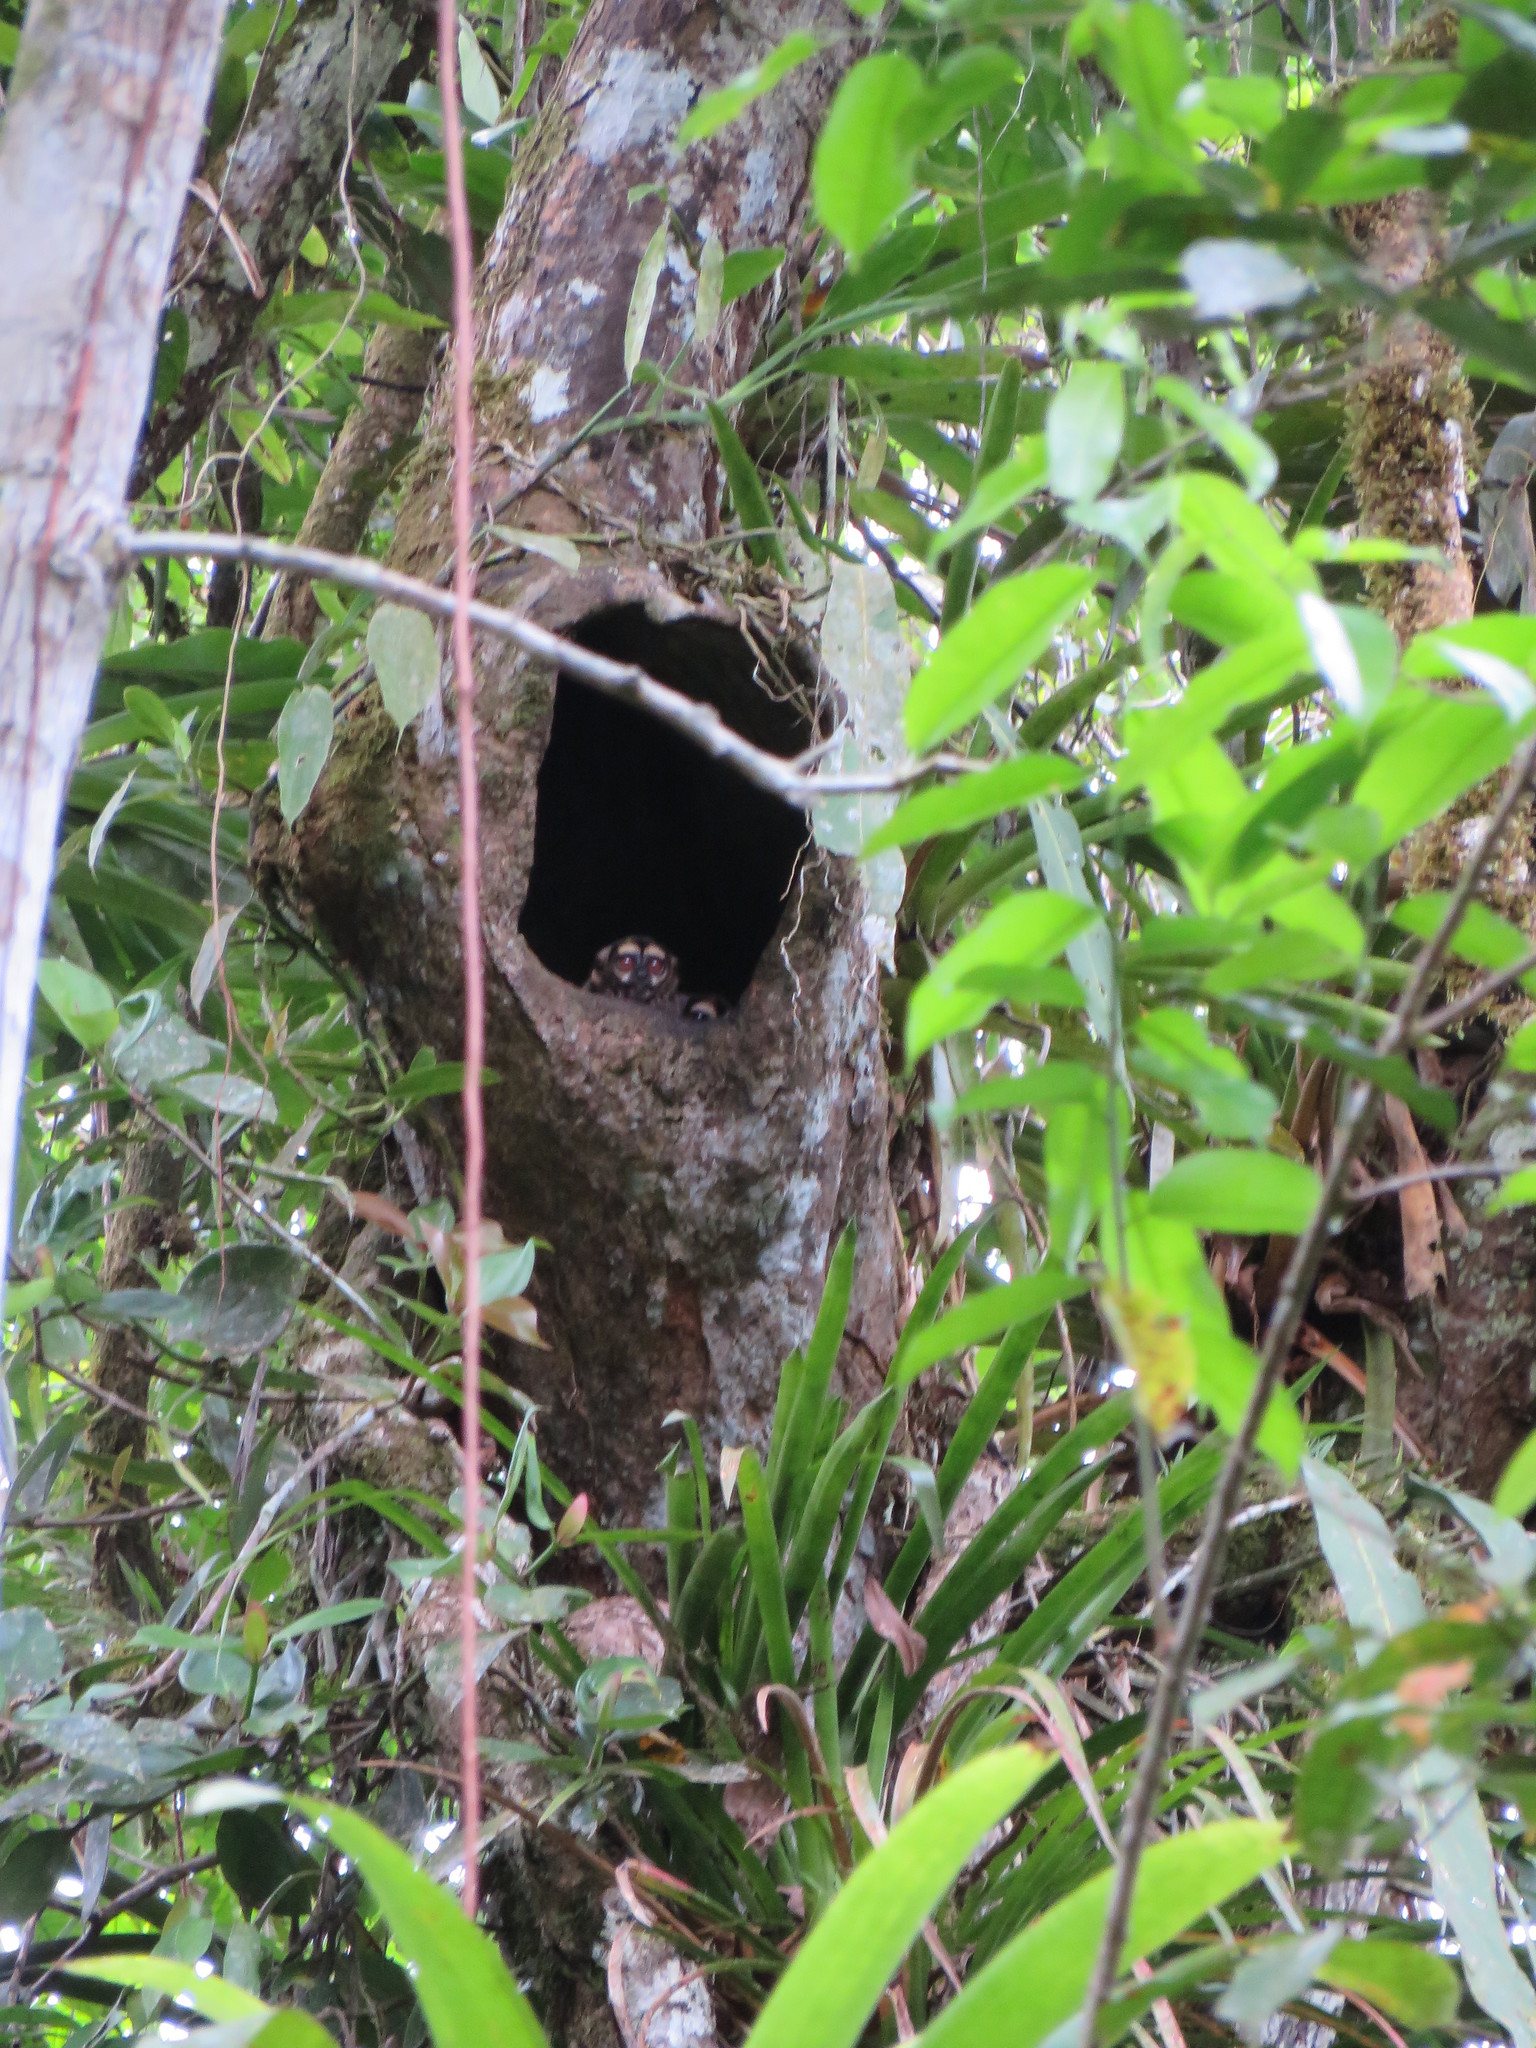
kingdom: Animalia
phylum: Chordata
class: Mammalia
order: Primates
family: Aotidae
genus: Aotus
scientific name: Aotus vociferans
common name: Noisy night monkey
